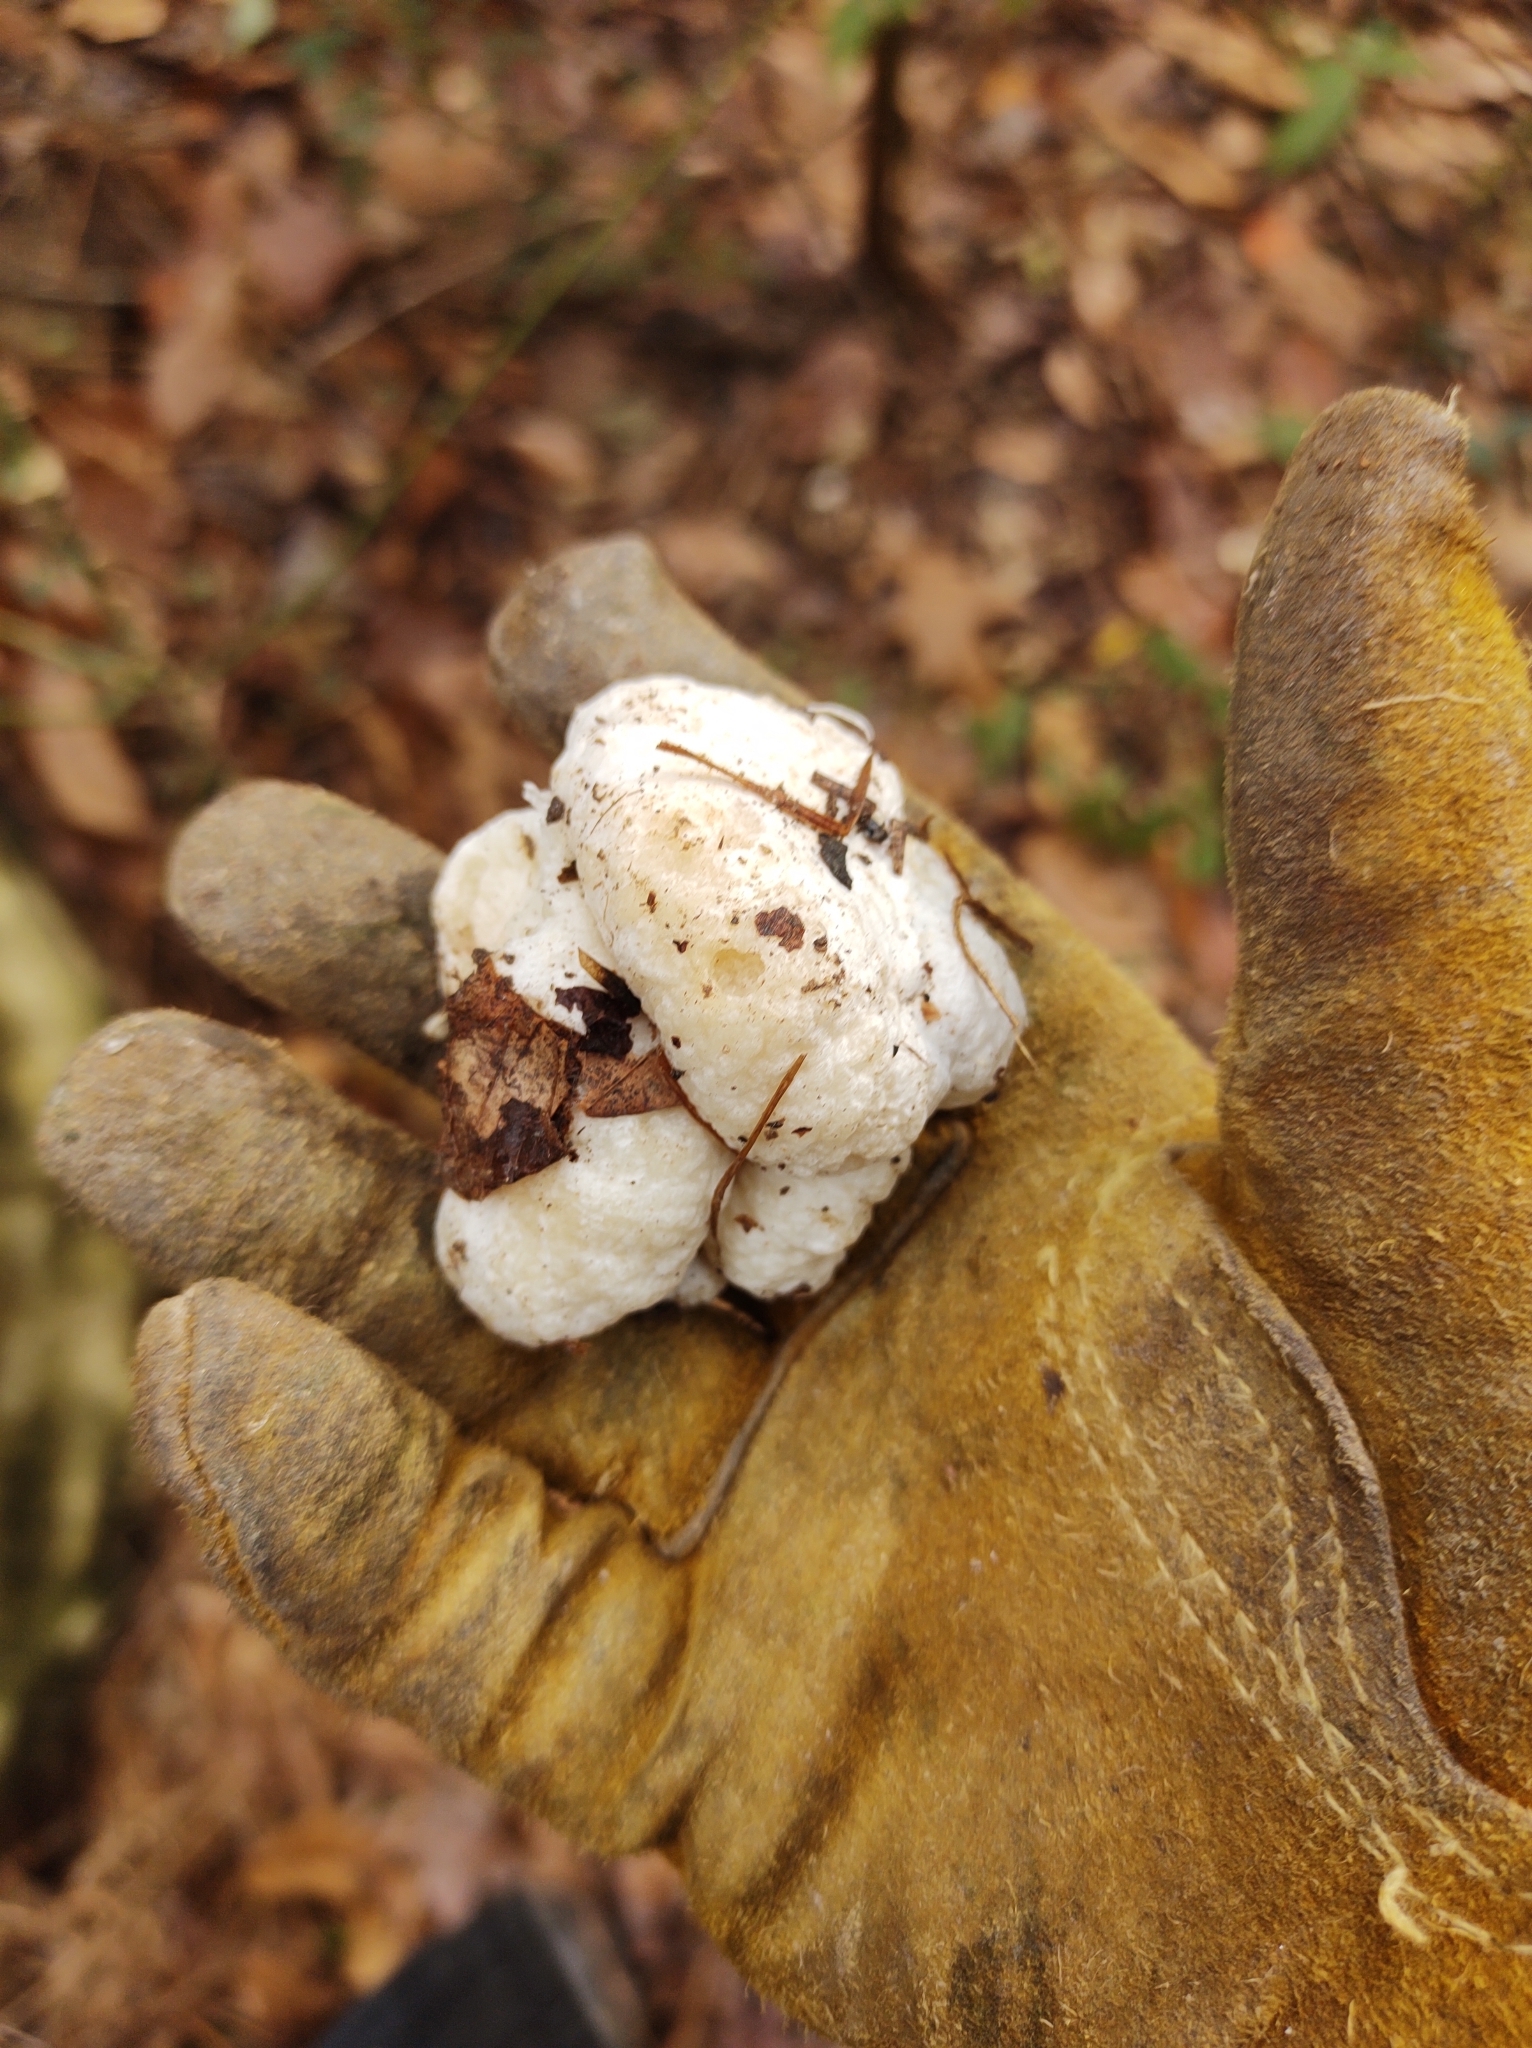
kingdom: Fungi
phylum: Basidiomycota
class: Agaricomycetes
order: Agaricales
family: Entolomataceae
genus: Entoloma
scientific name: Entoloma abortivum
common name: Aborted entoloma
